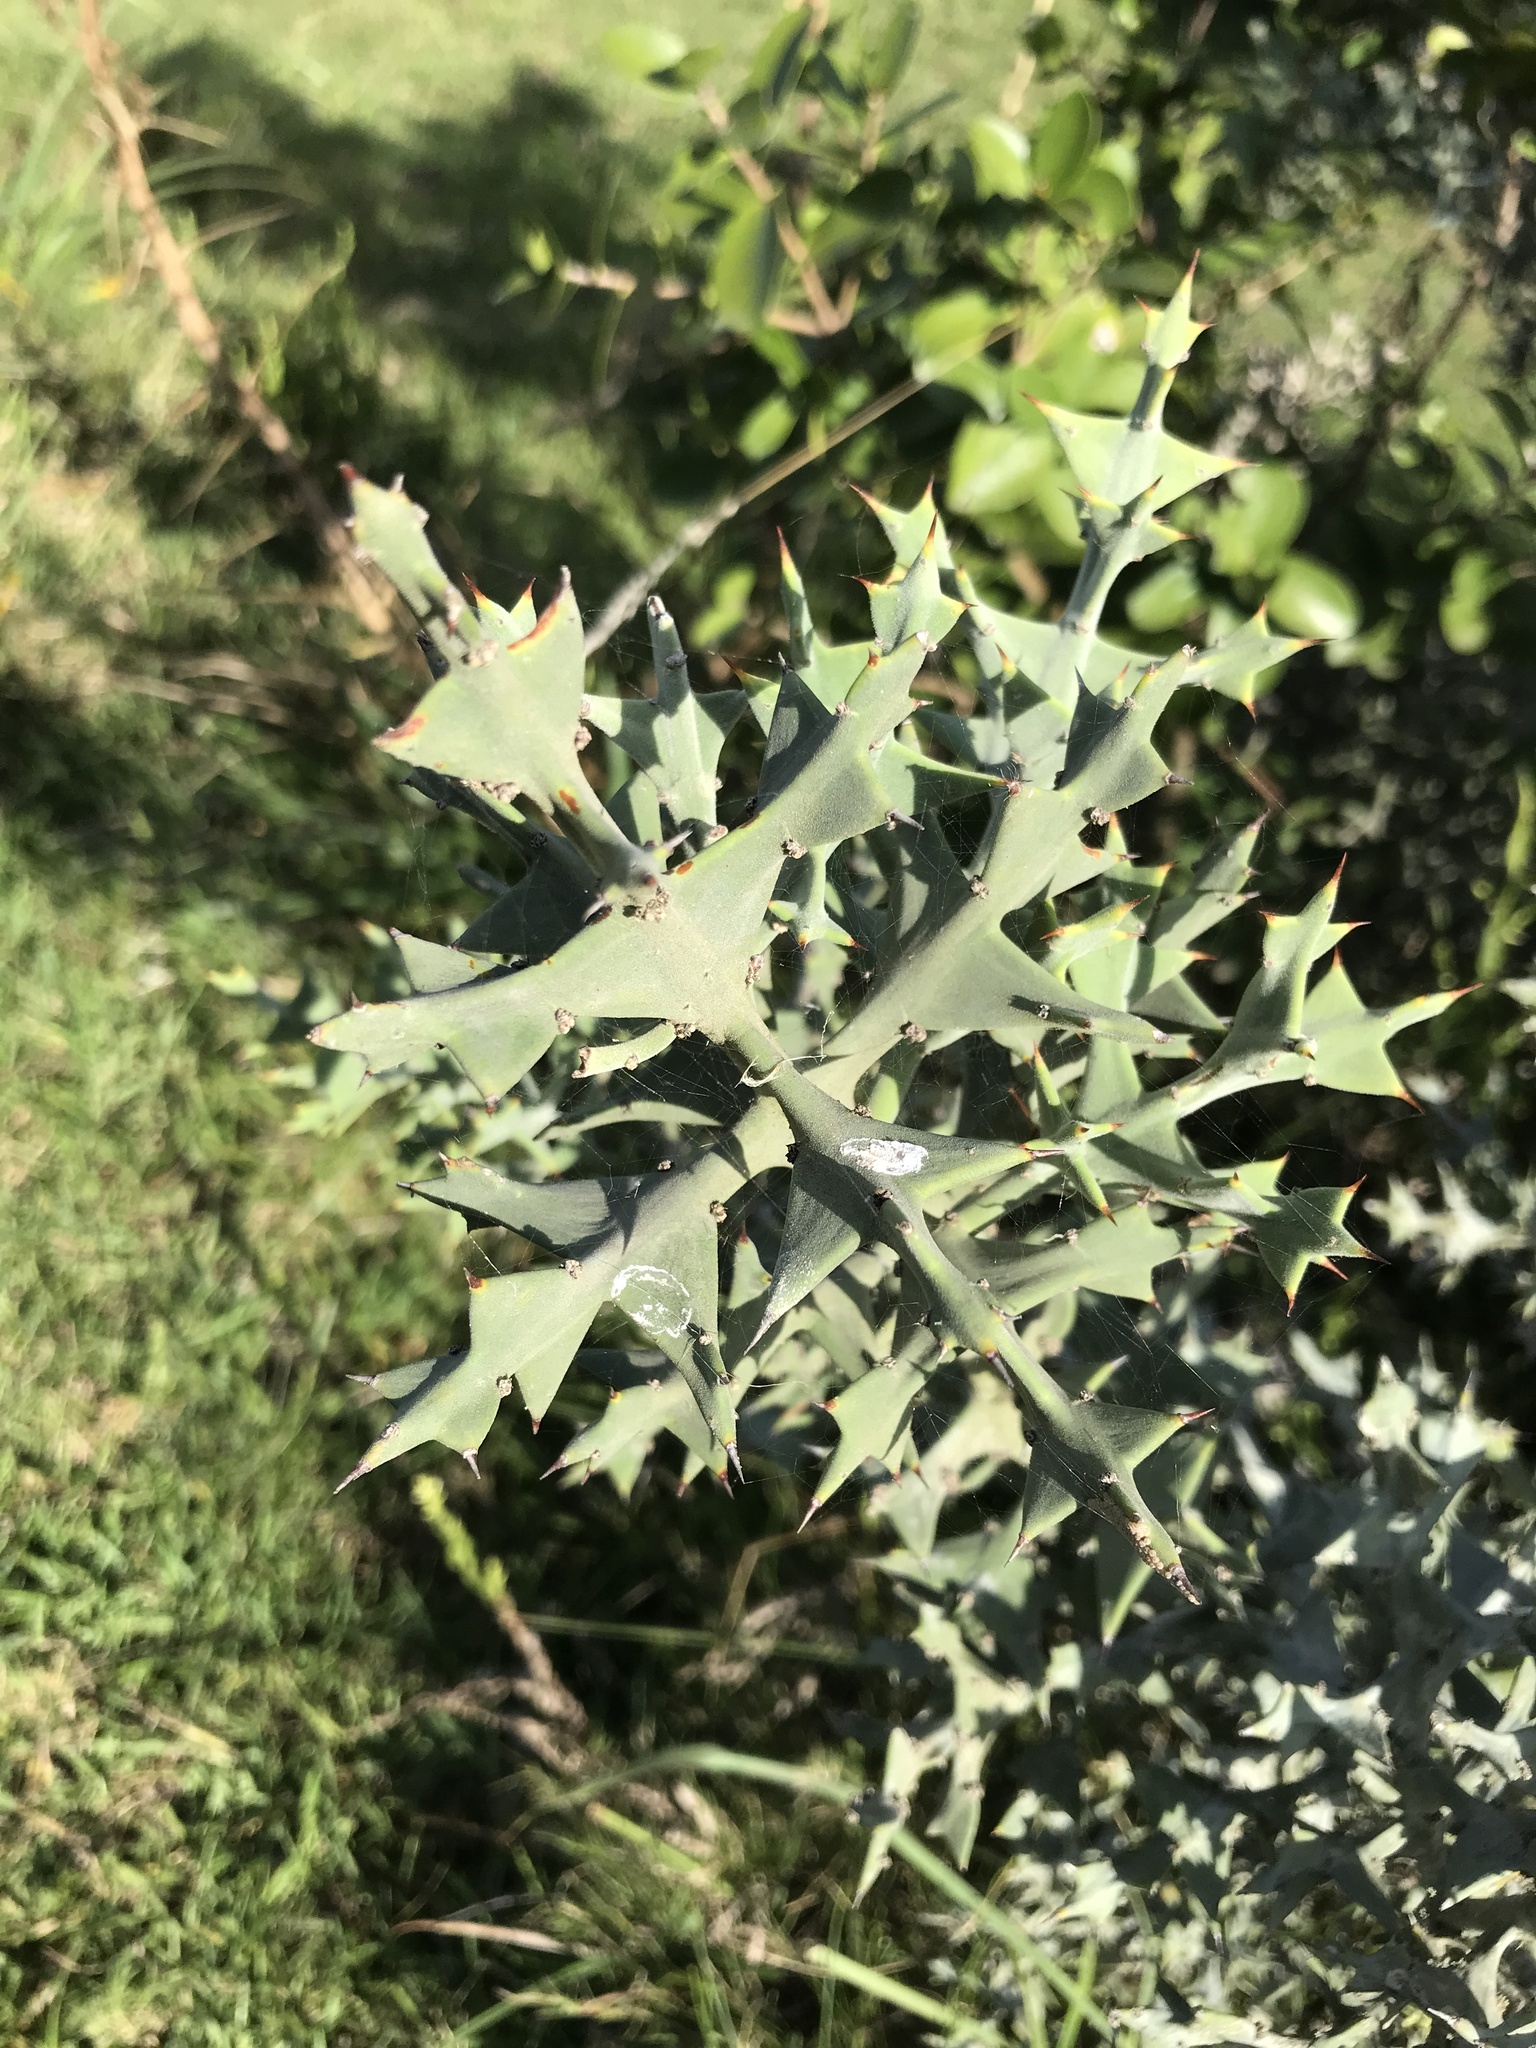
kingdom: Plantae
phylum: Tracheophyta
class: Magnoliopsida
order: Rosales
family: Rhamnaceae
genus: Colletia
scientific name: Colletia paradoxa
